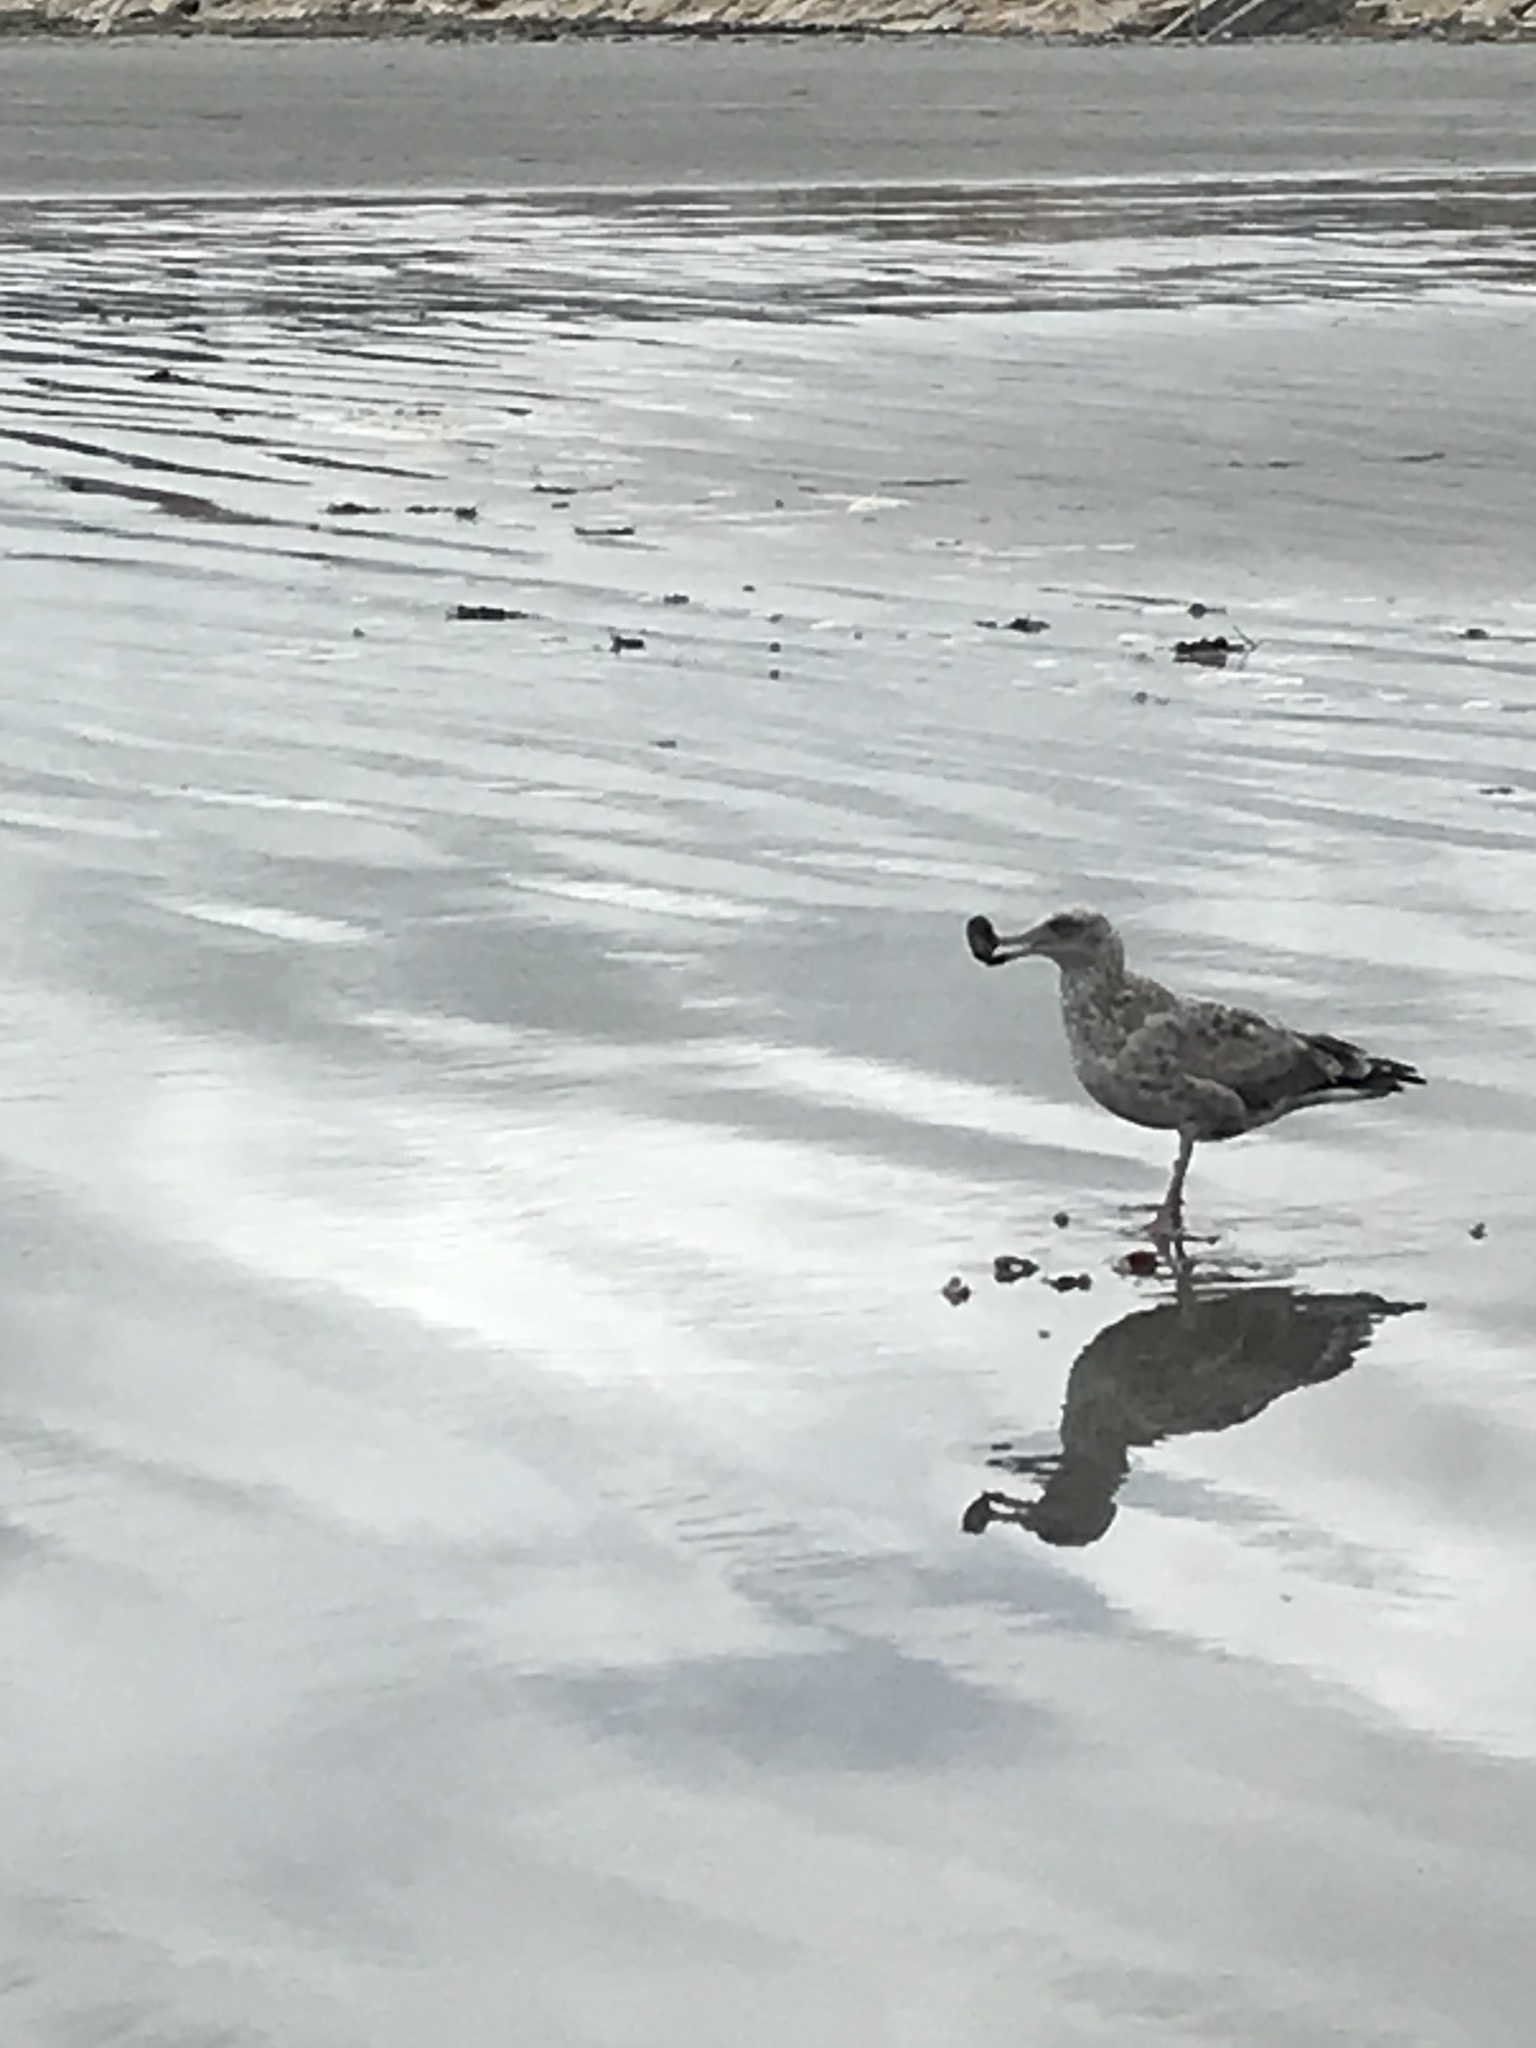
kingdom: Animalia
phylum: Chordata
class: Aves
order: Charadriiformes
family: Laridae
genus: Larus
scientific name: Larus argentatus
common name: Herring gull
